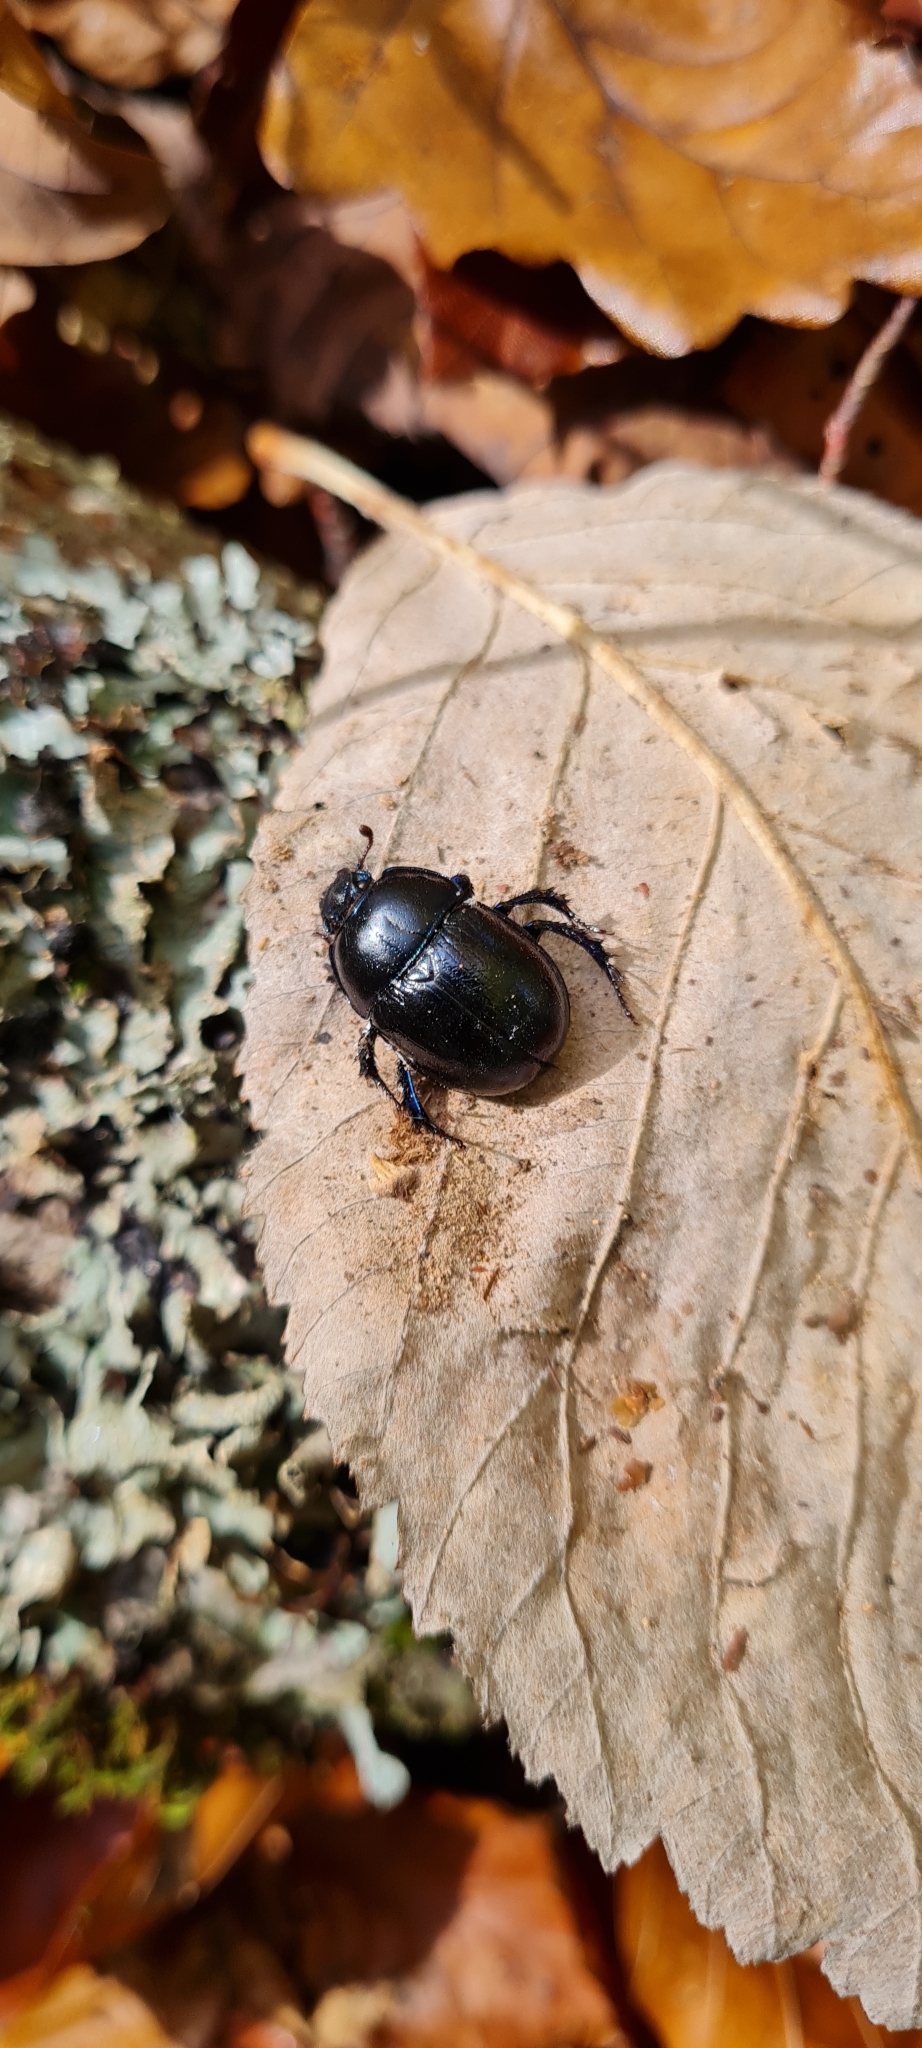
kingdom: Animalia
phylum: Arthropoda
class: Insecta
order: Coleoptera
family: Geotrupidae
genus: Anoplotrupes
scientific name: Anoplotrupes stercorosus
